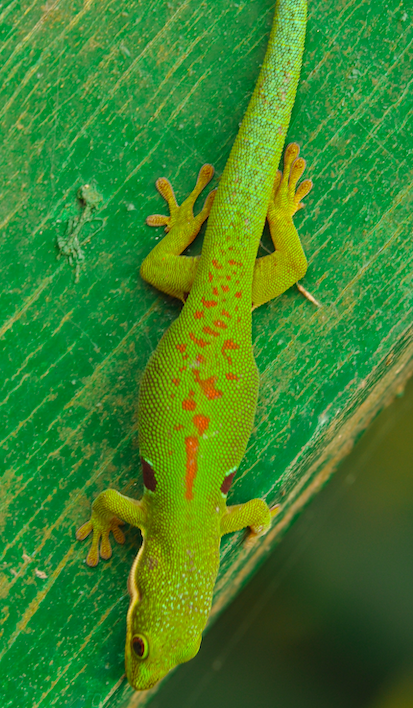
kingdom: Animalia
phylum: Chordata
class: Squamata
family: Gekkonidae
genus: Phelsuma
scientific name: Phelsuma quadriocellata
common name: Peacock day gecko
